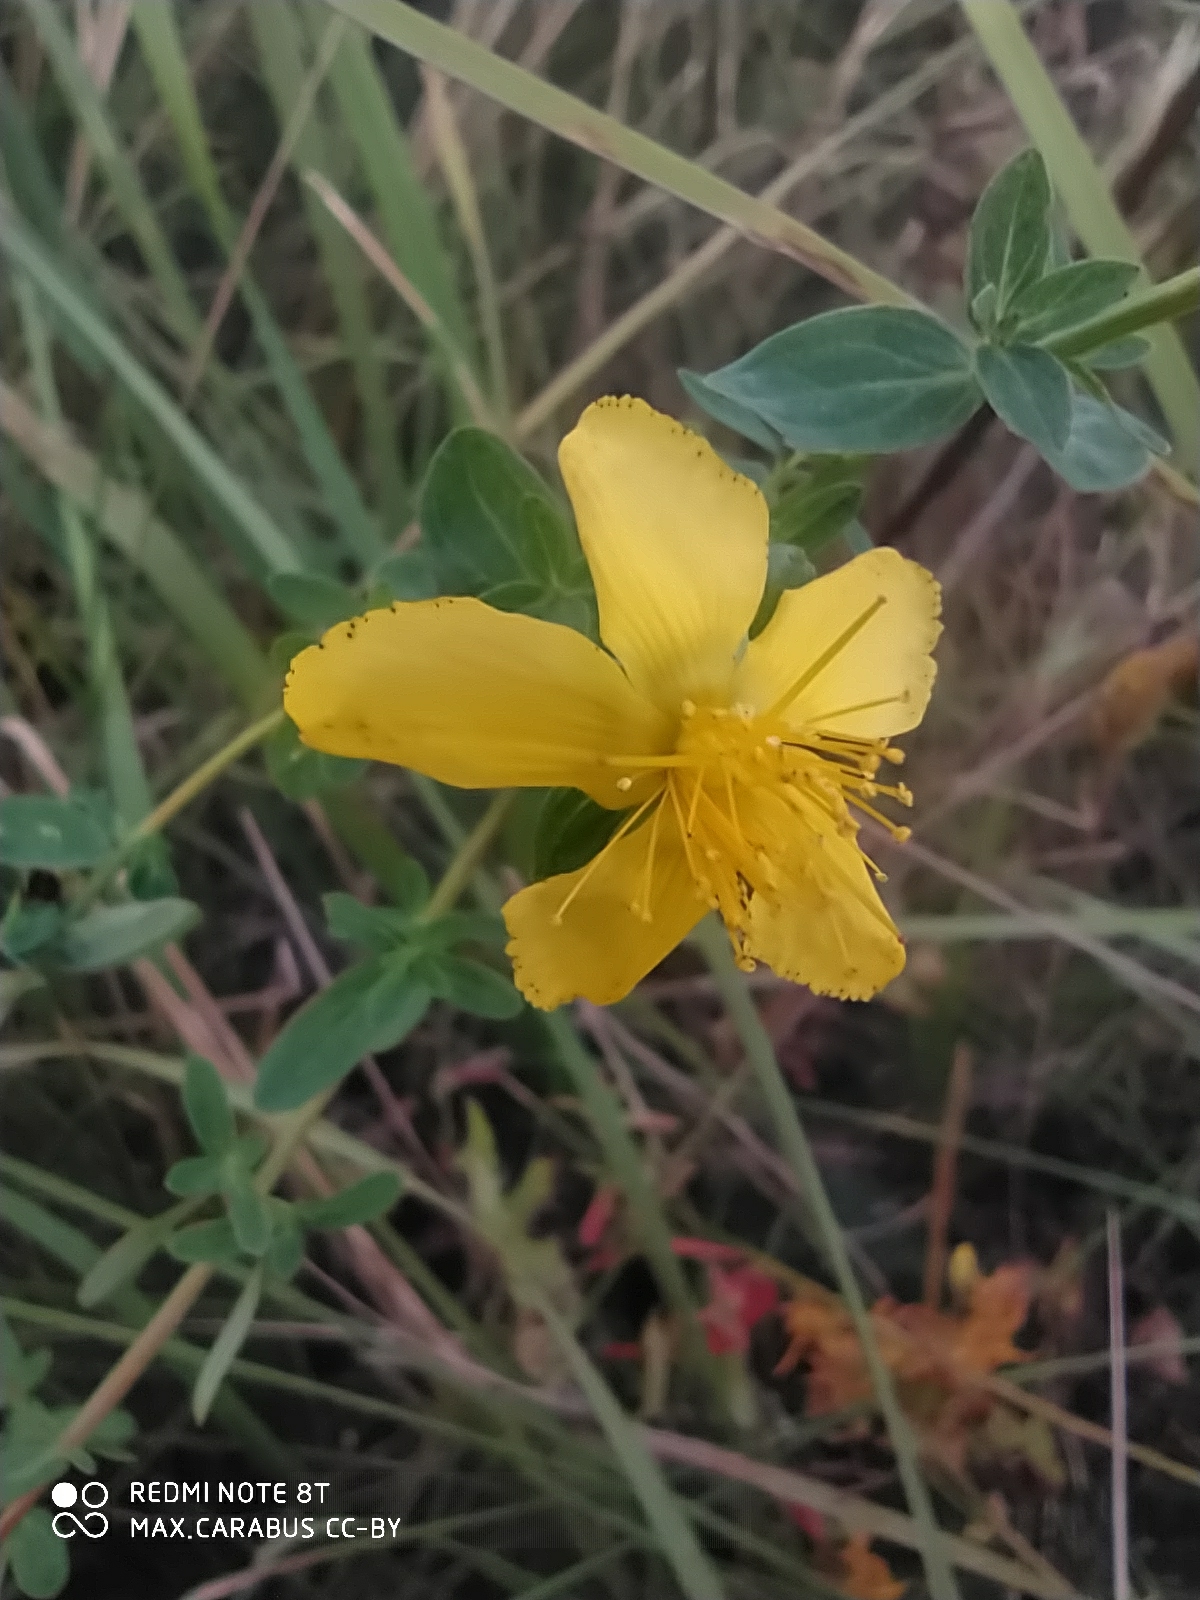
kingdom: Plantae
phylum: Tracheophyta
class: Magnoliopsida
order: Malpighiales
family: Hypericaceae
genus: Hypericum
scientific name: Hypericum perforatum
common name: Common st. johnswort
